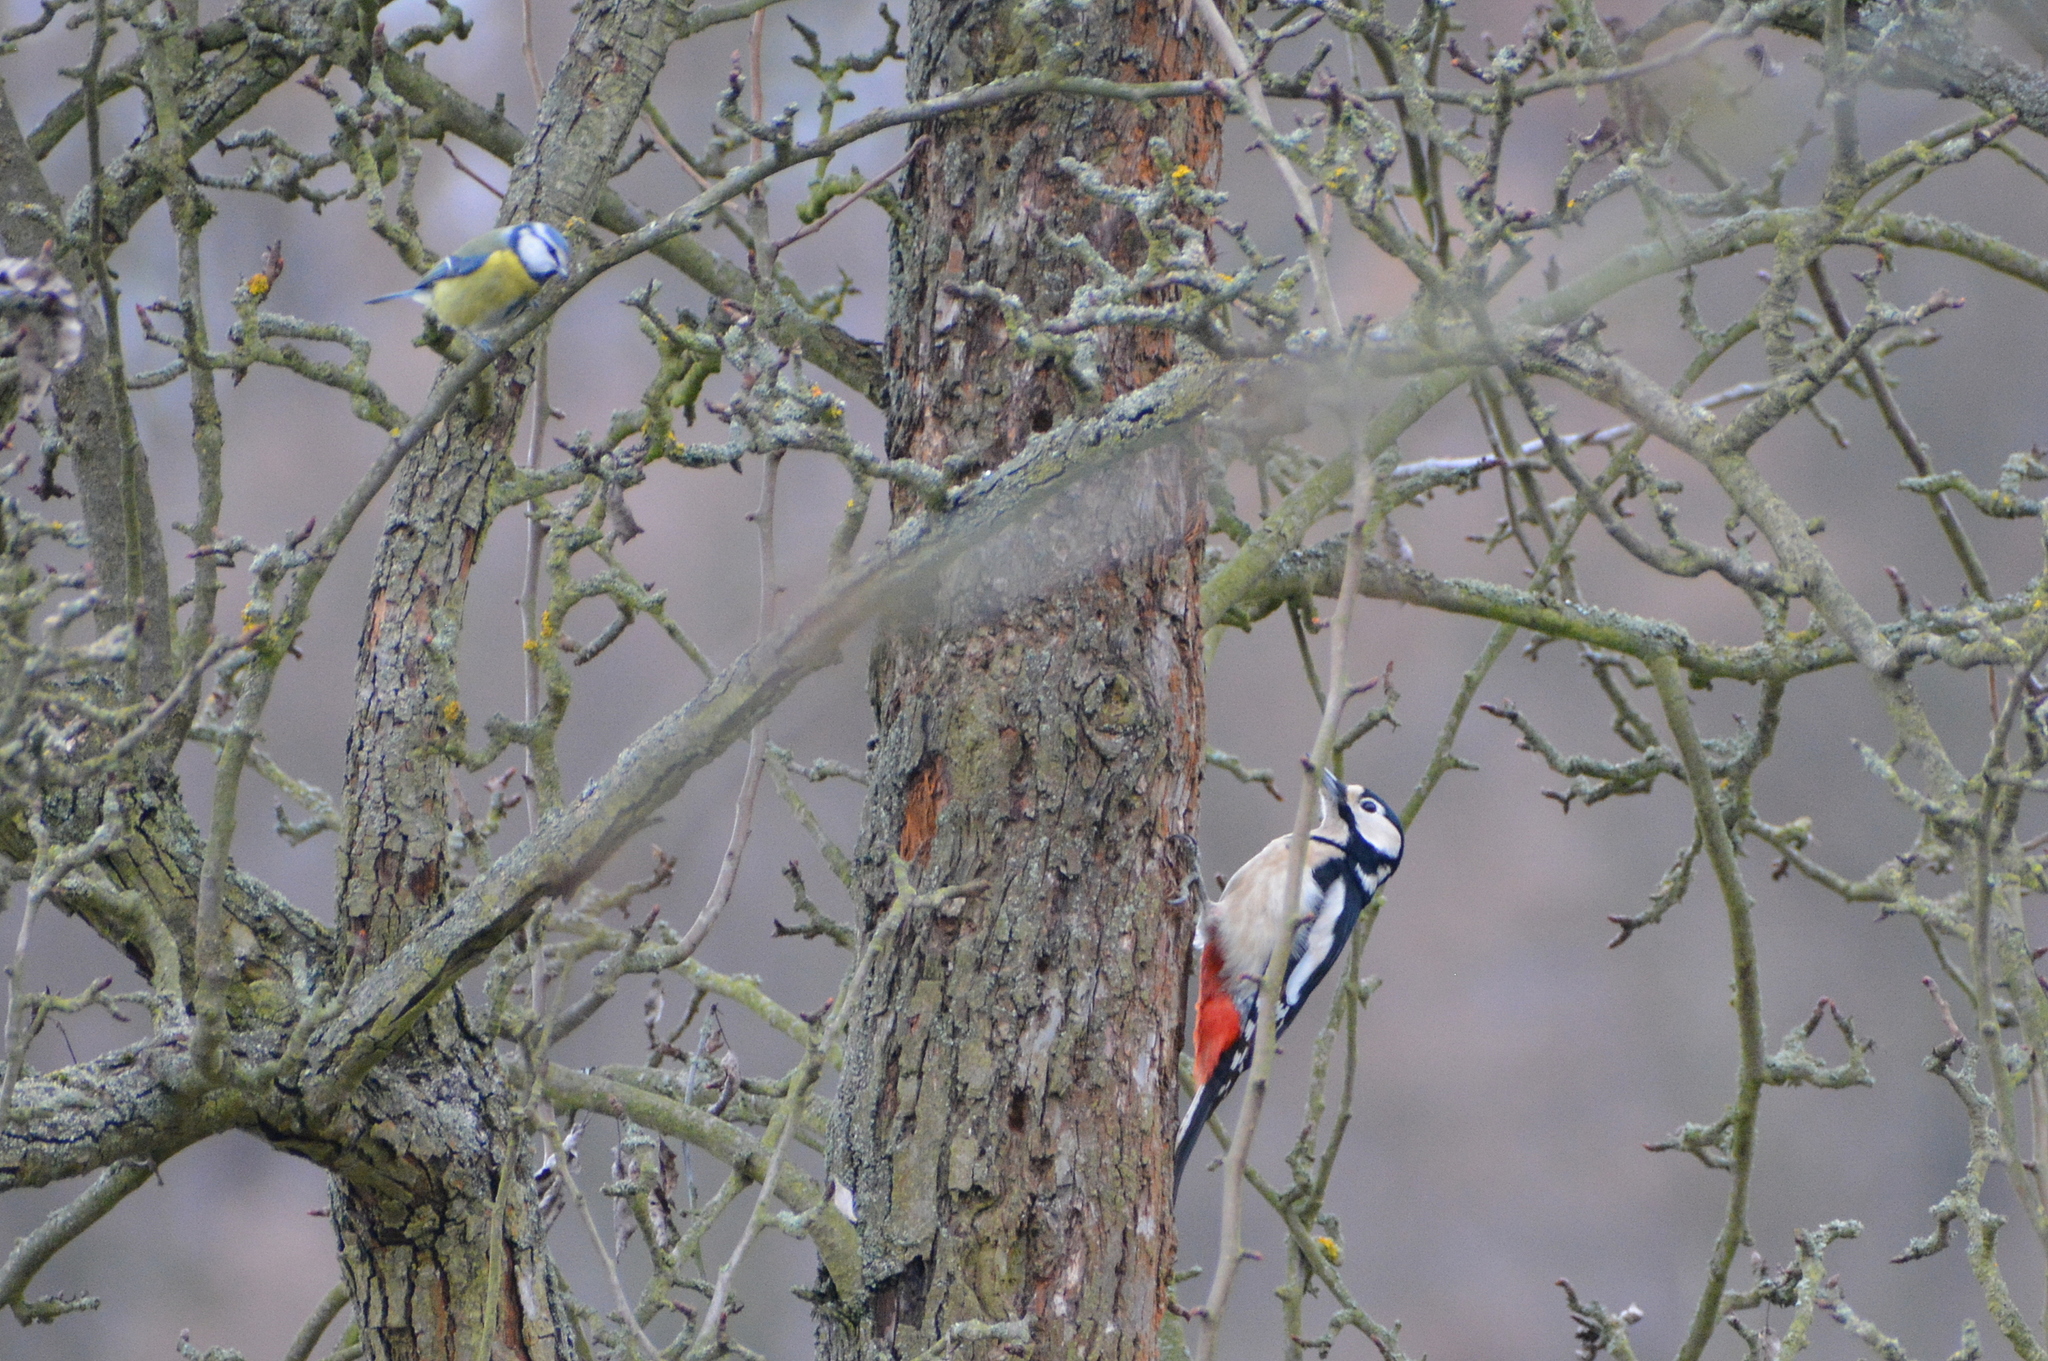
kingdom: Animalia
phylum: Chordata
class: Aves
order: Piciformes
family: Picidae
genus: Dendrocopos
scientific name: Dendrocopos major
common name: Great spotted woodpecker
